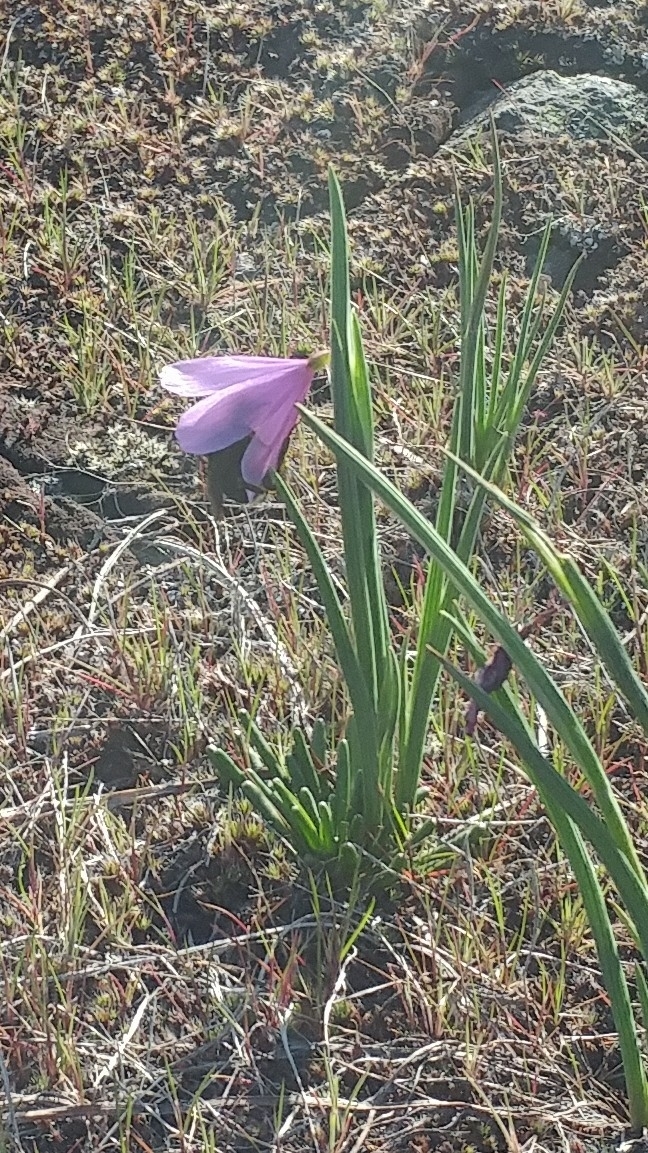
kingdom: Plantae
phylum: Tracheophyta
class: Liliopsida
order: Asparagales
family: Iridaceae
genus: Olsynium
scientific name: Olsynium douglasii
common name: Douglas' grasswidow
